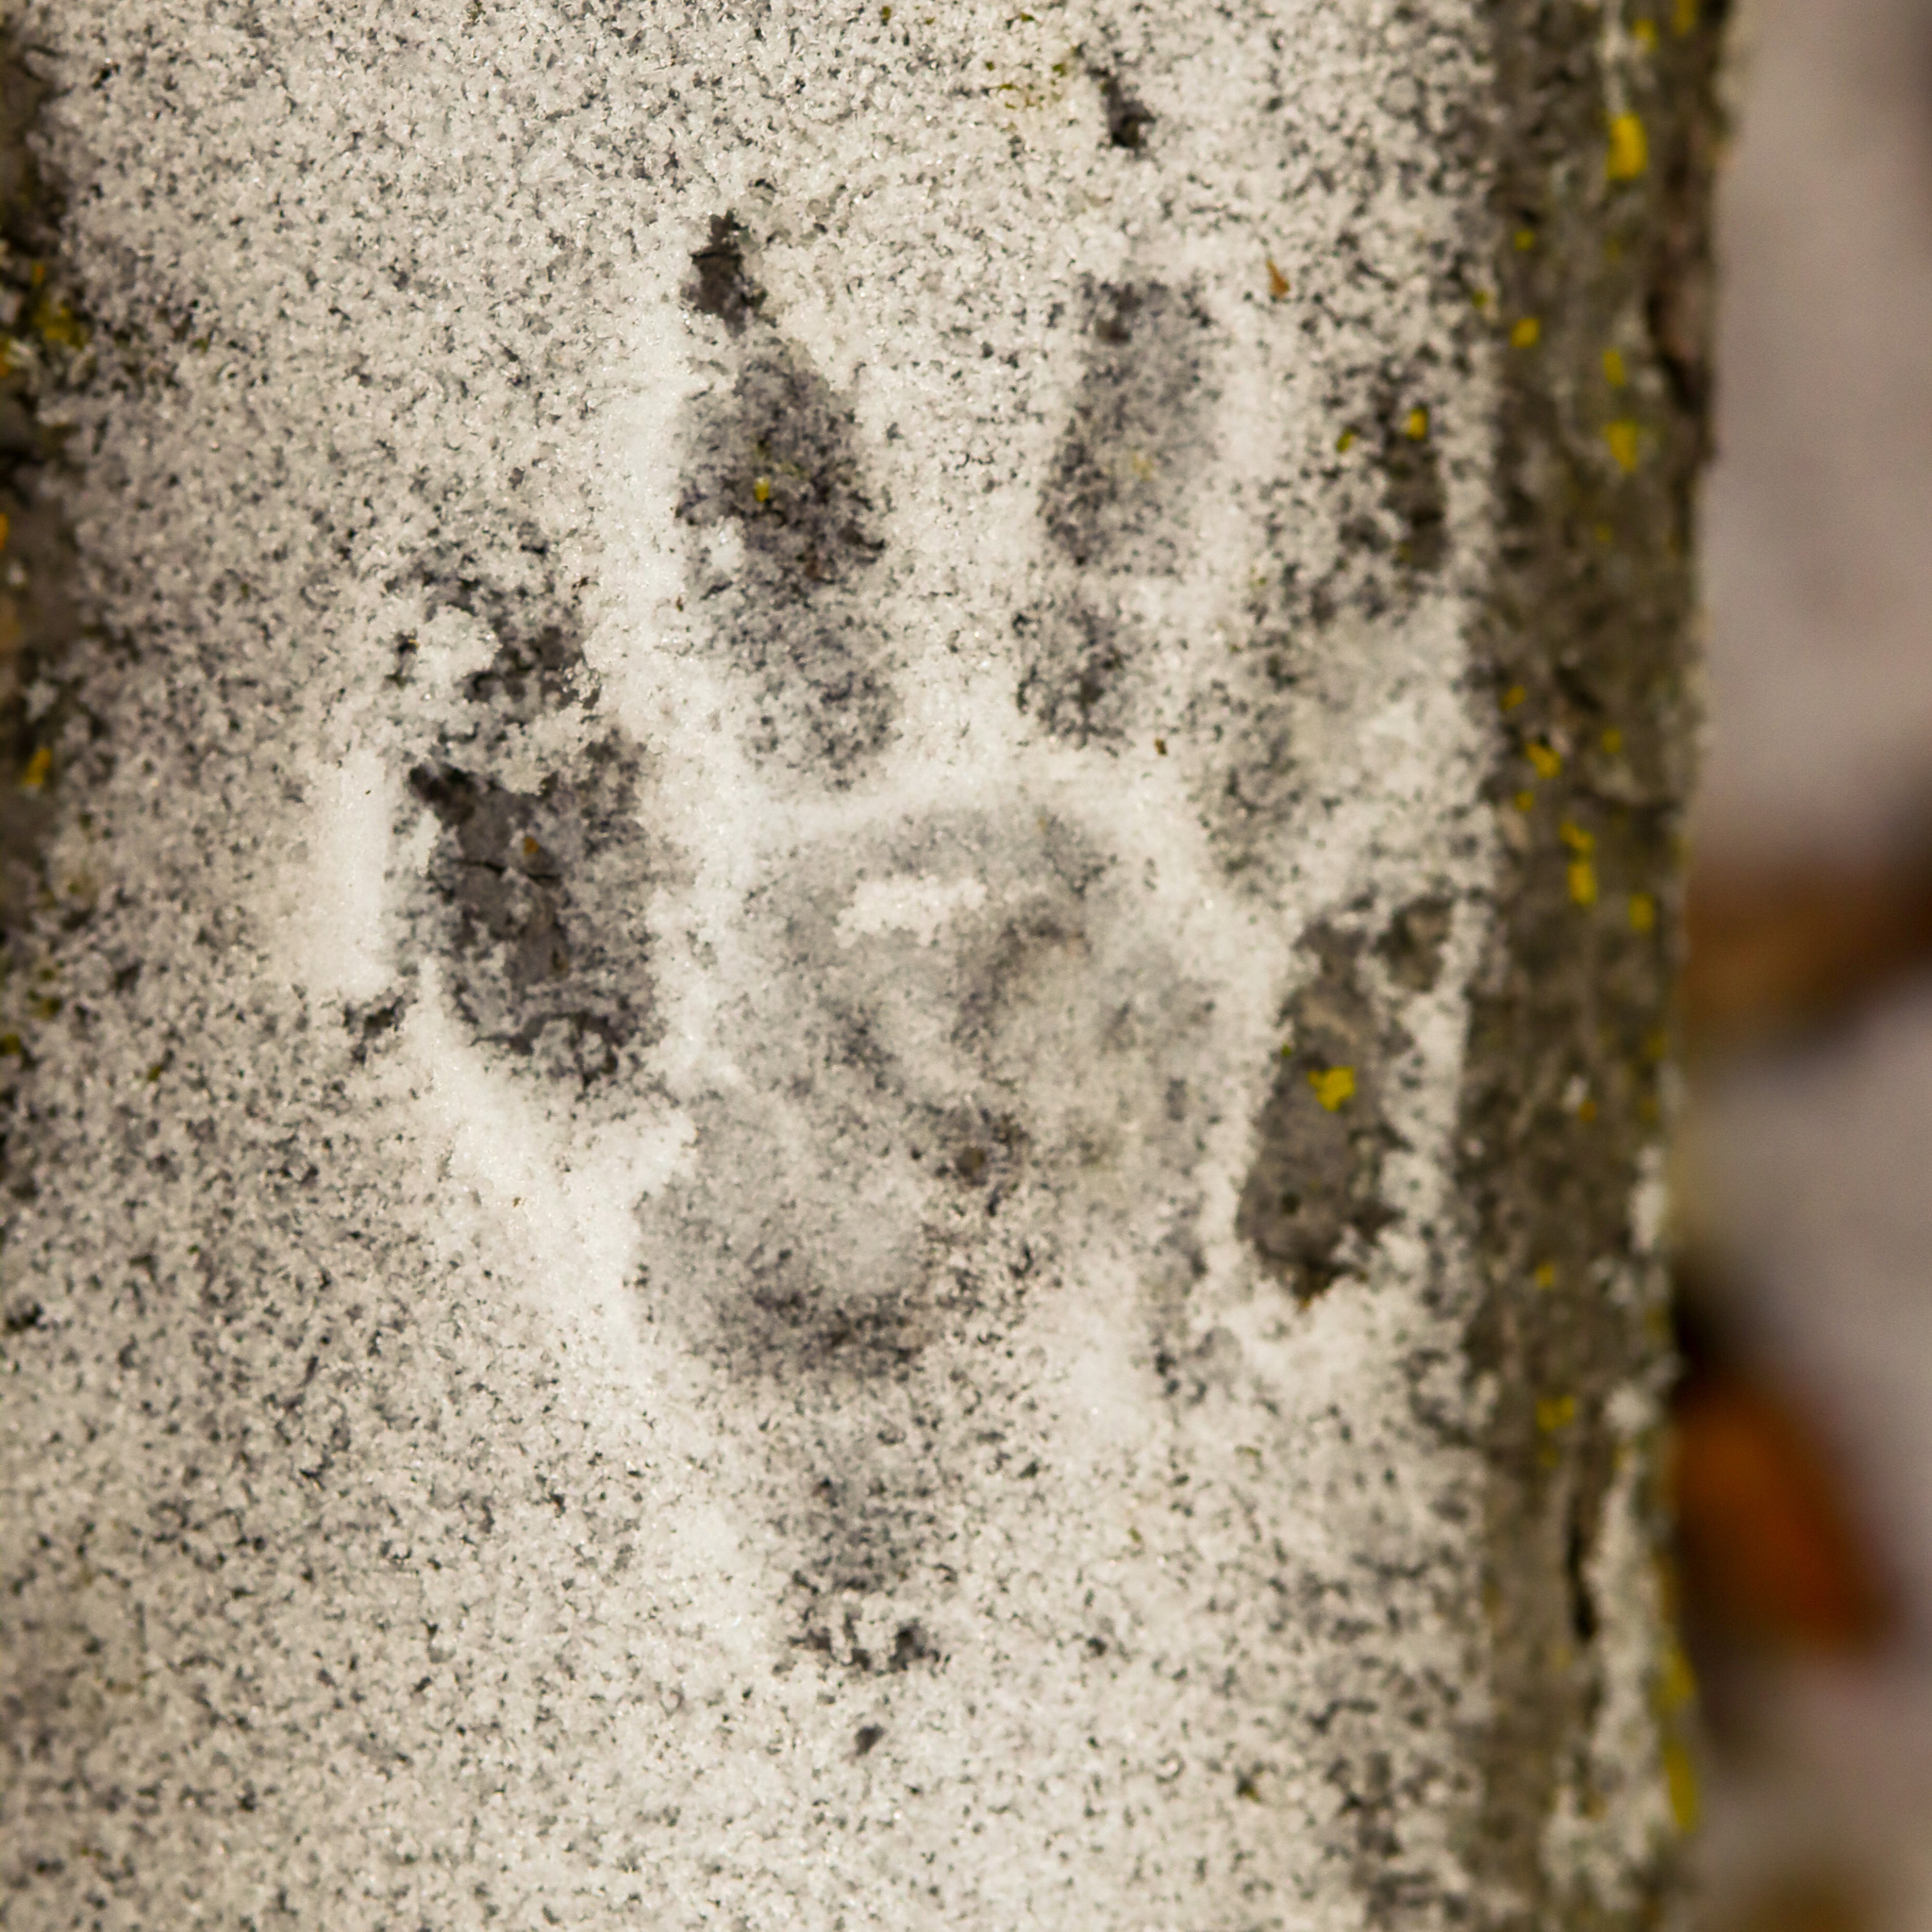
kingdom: Animalia
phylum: Chordata
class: Mammalia
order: Carnivora
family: Procyonidae
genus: Procyon
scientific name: Procyon lotor
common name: Raccoon
